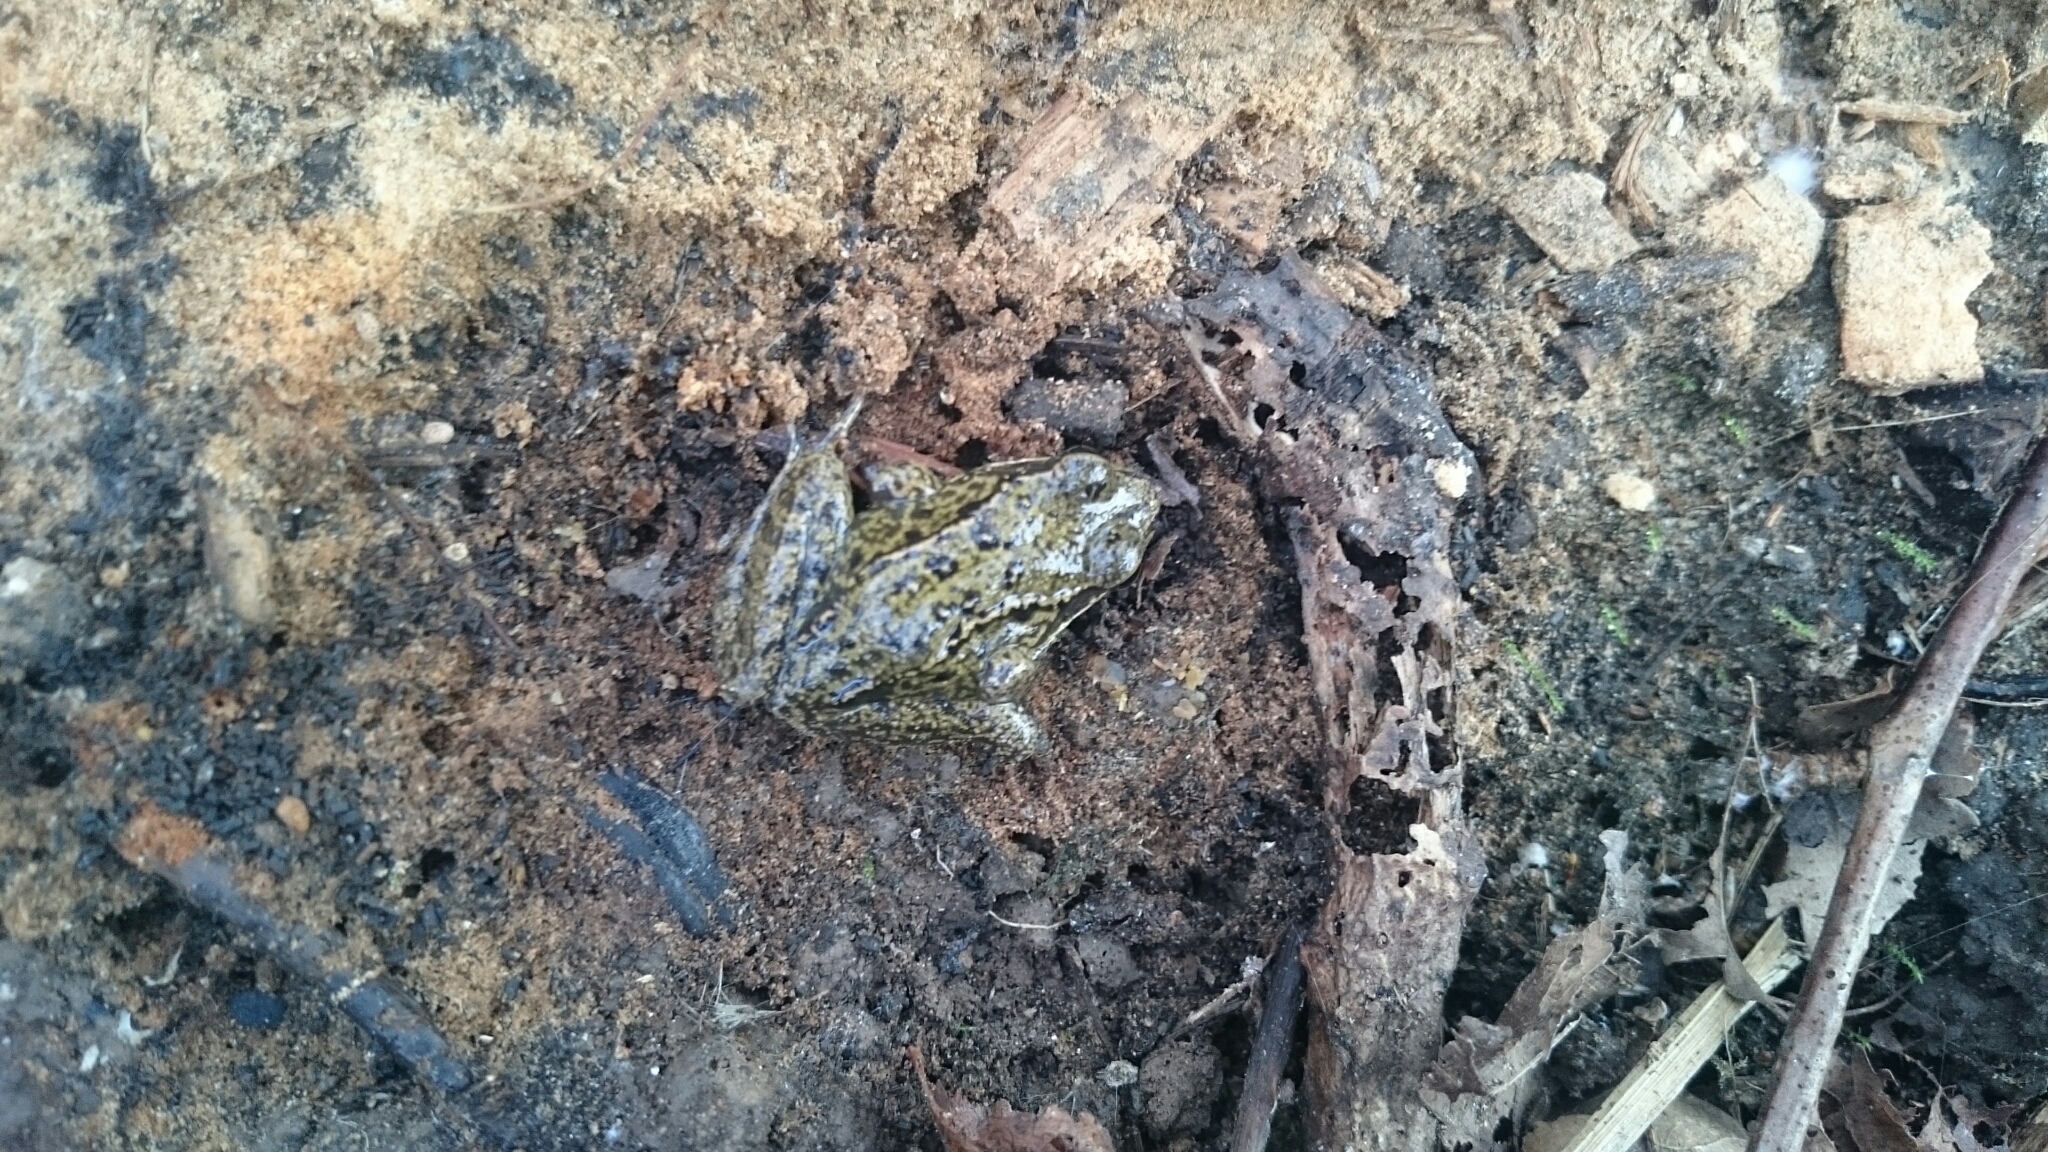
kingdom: Animalia
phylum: Chordata
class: Amphibia
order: Anura
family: Ranidae
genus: Rana
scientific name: Rana temporaria
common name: Common frog
